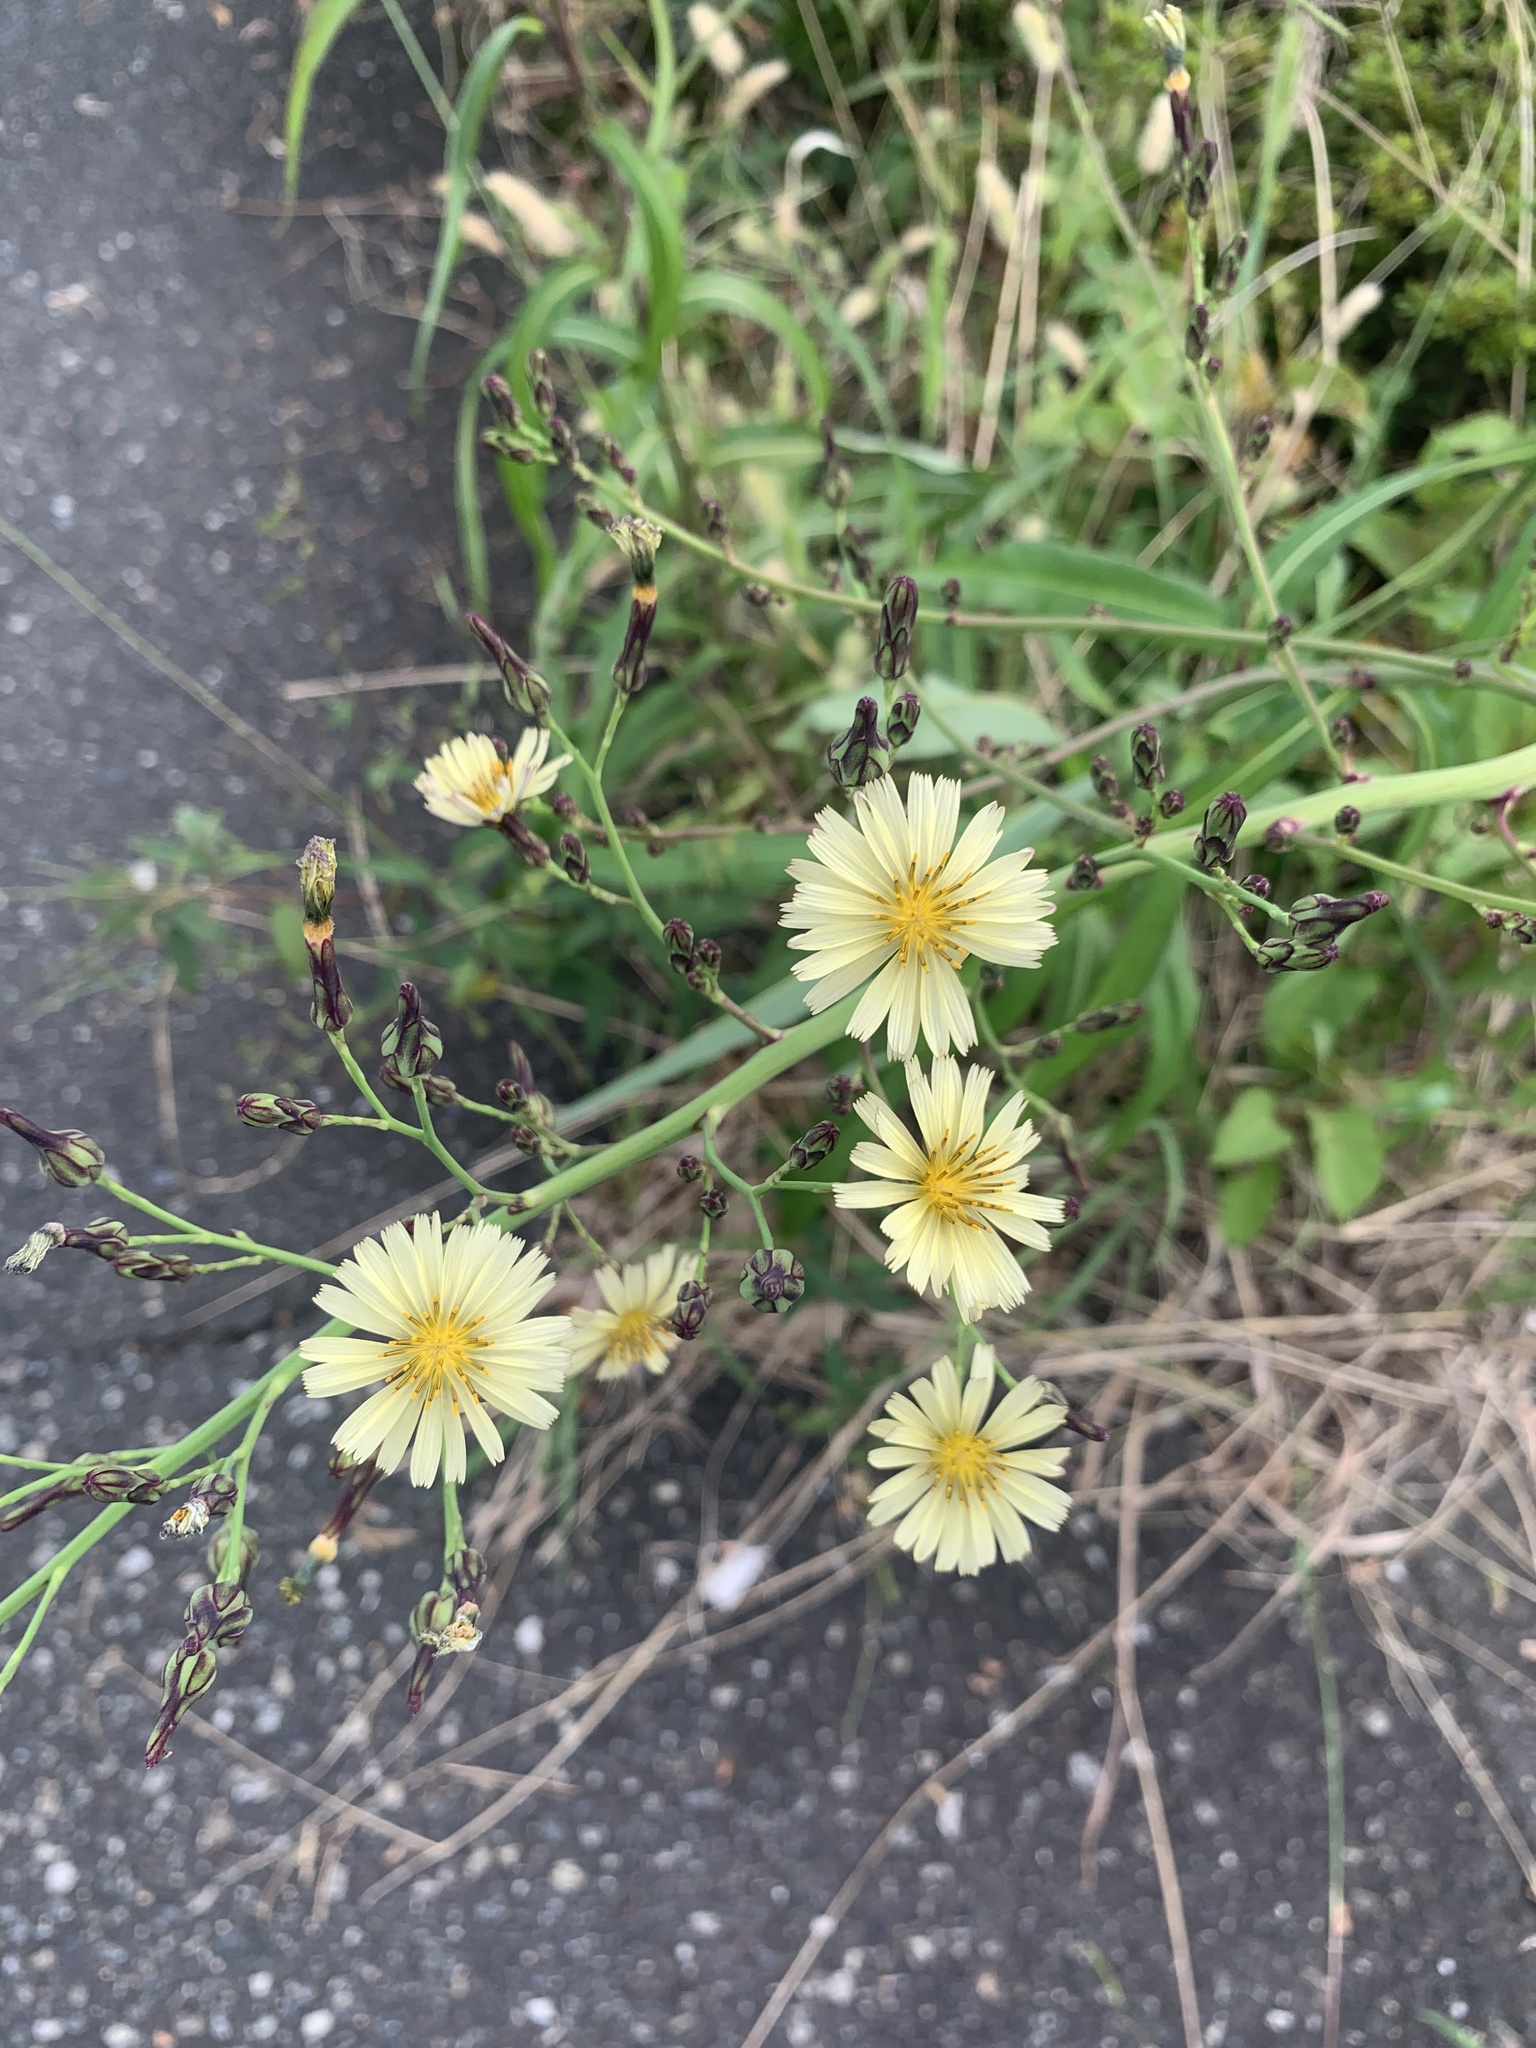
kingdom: Plantae
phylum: Tracheophyta
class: Magnoliopsida
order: Asterales
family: Asteraceae
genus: Lactuca
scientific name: Lactuca indica
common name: Wild lettuce
